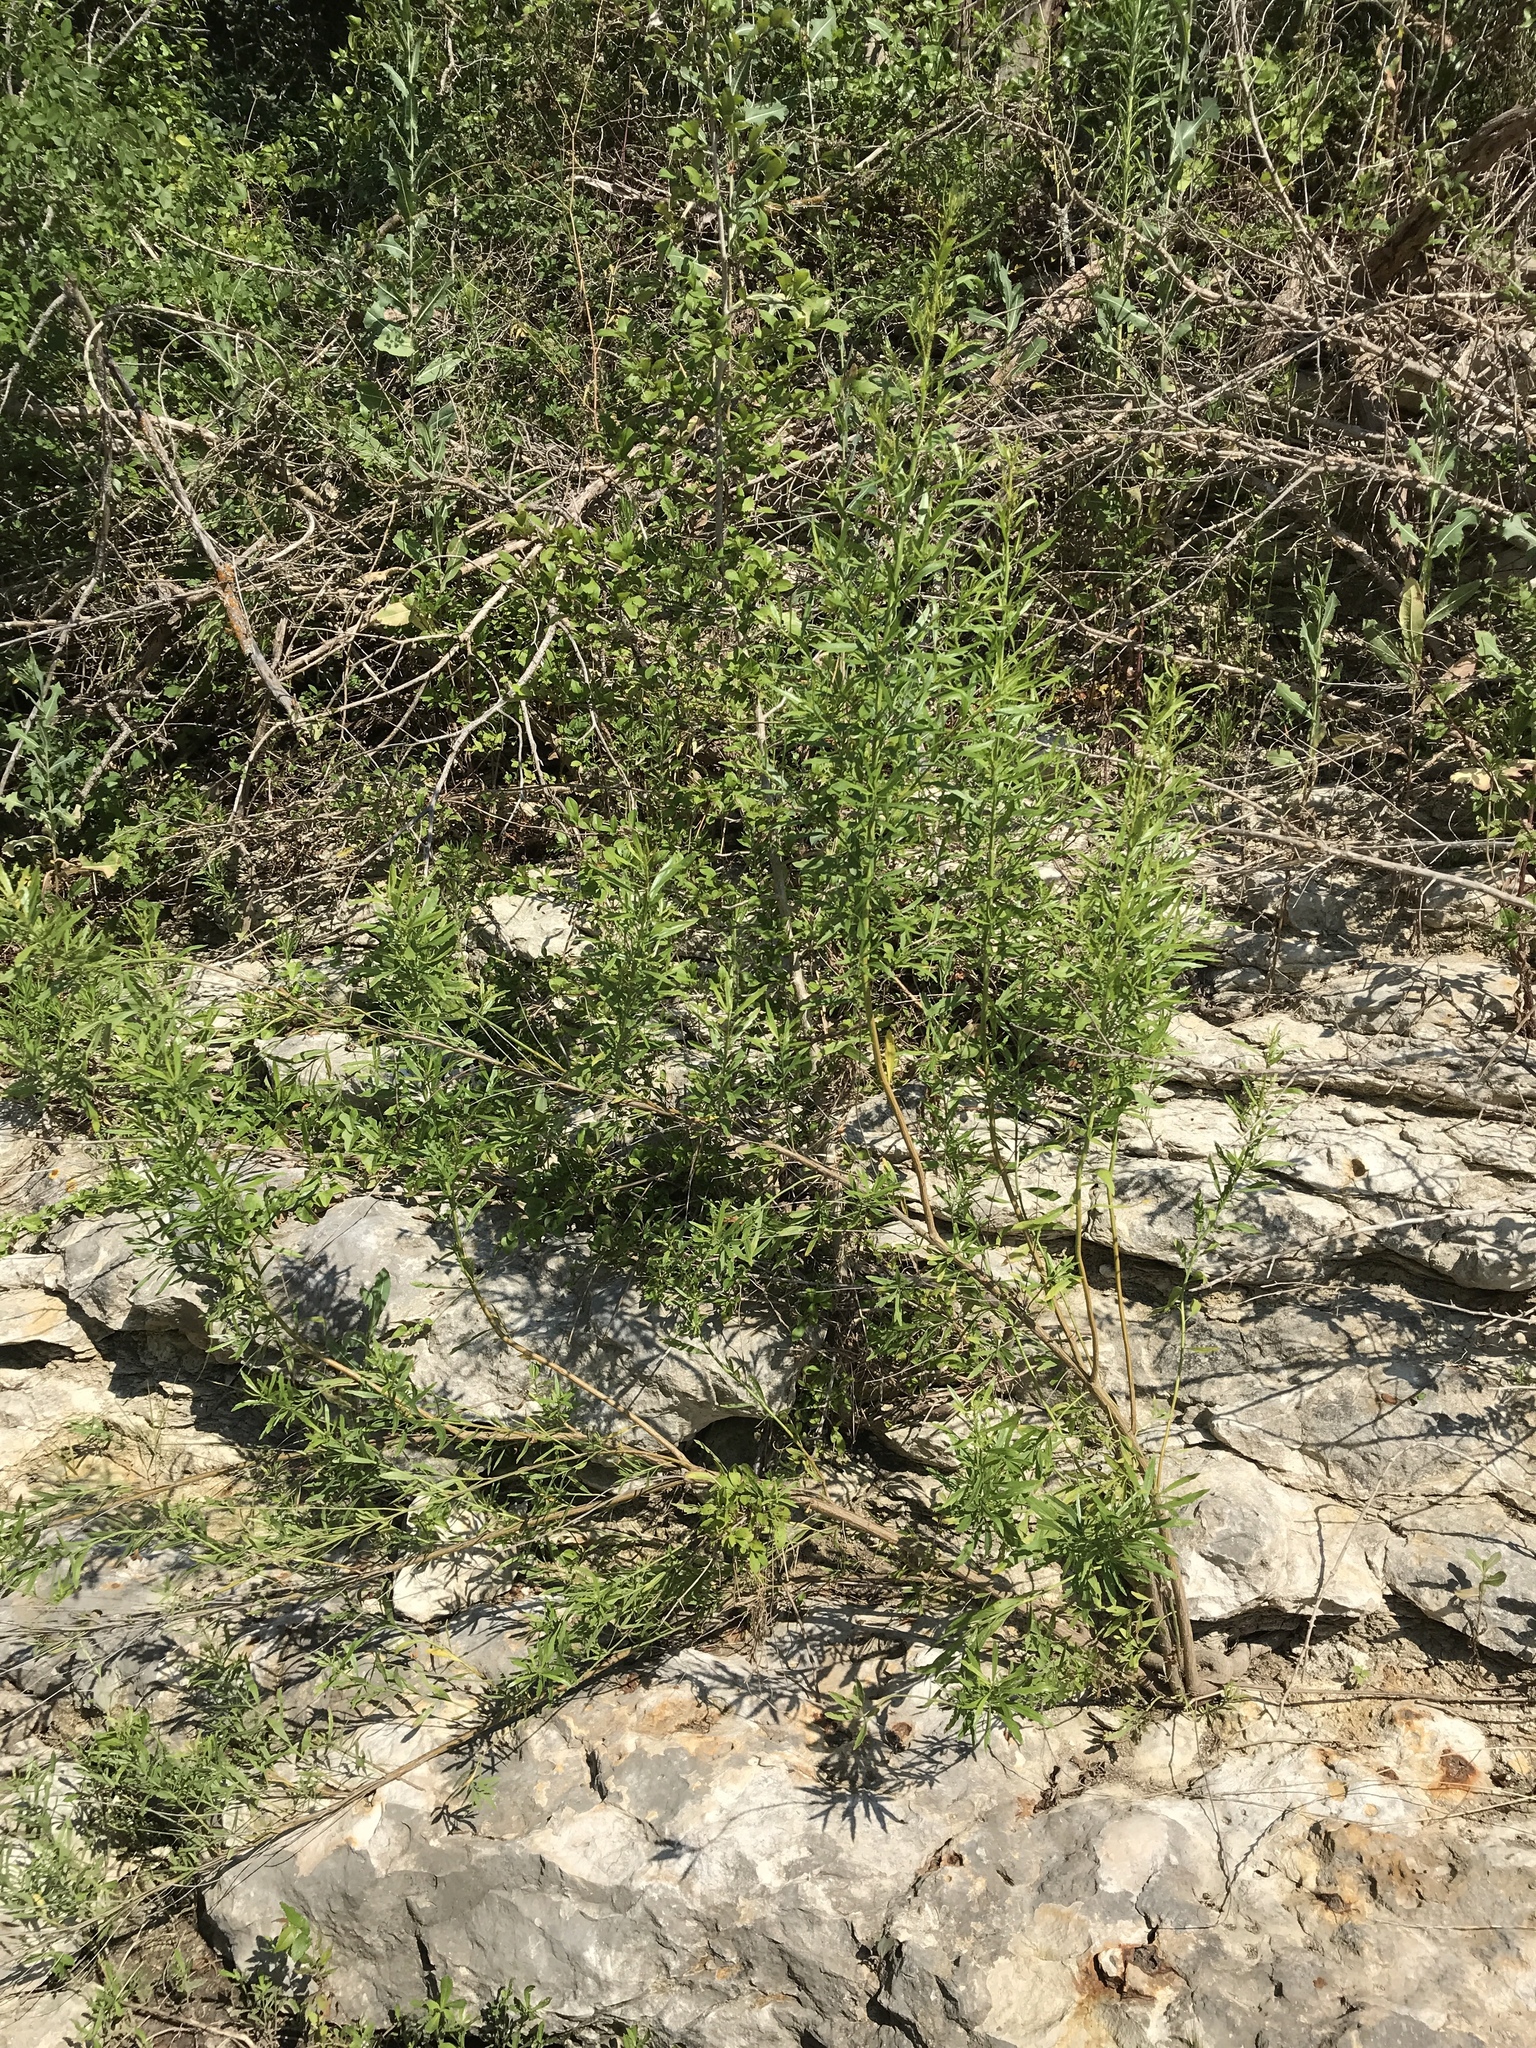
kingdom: Plantae
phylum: Tracheophyta
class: Magnoliopsida
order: Asterales
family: Asteraceae
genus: Baccharis
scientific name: Baccharis neglecta
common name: Roosevelt-weed
